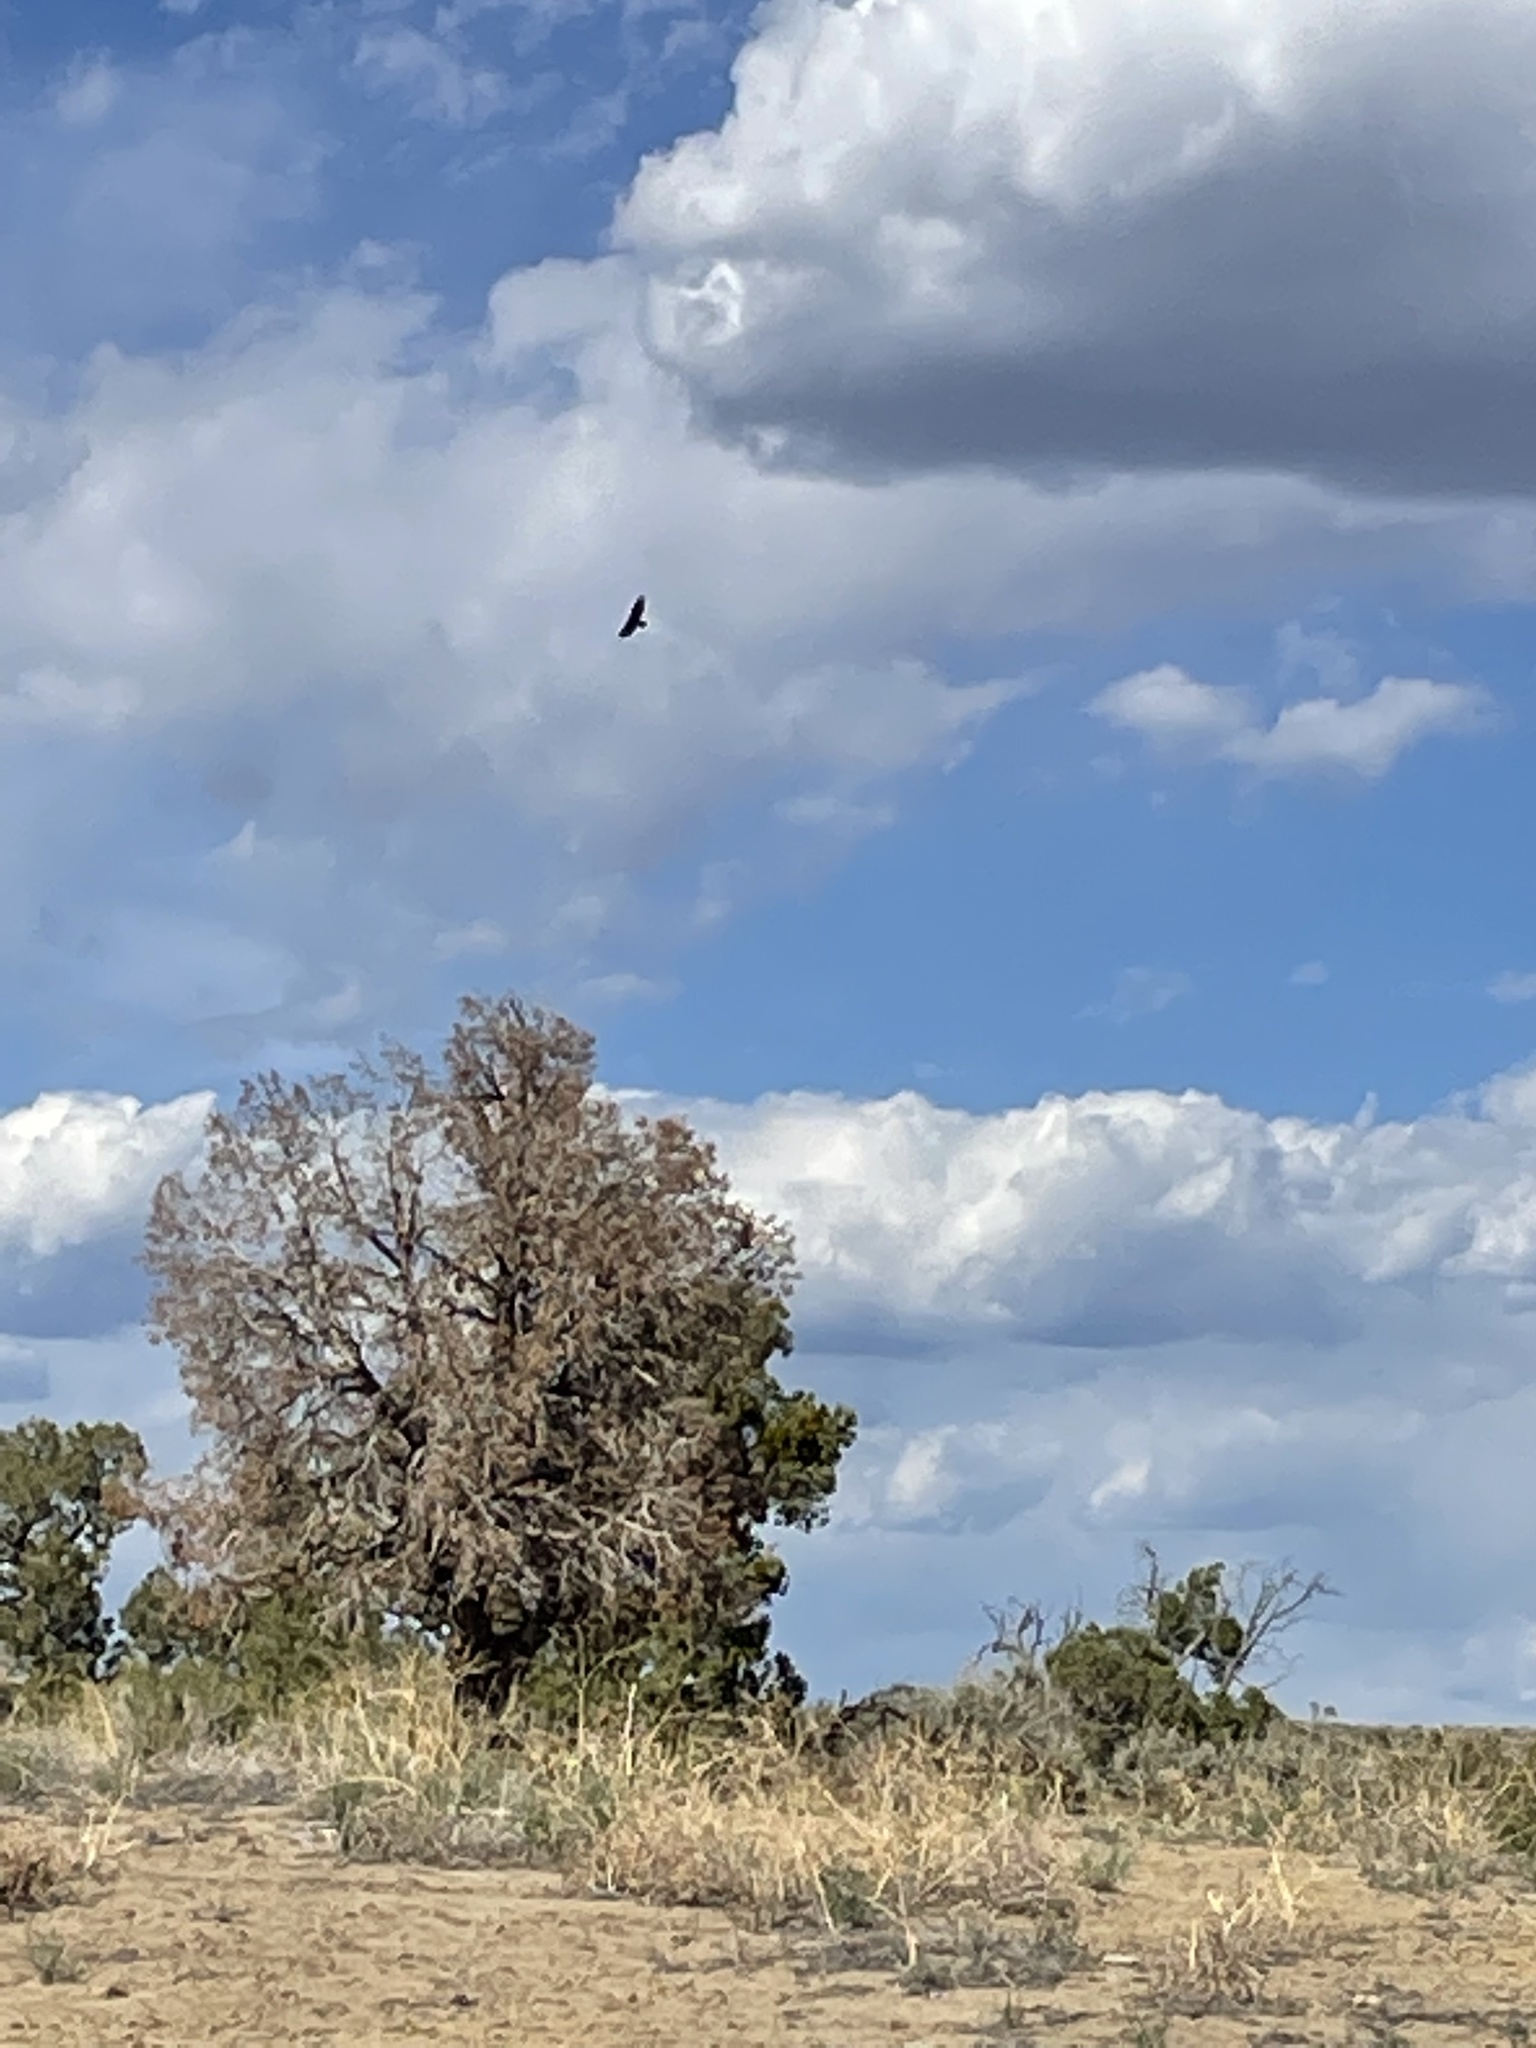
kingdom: Animalia
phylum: Chordata
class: Aves
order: Accipitriformes
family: Cathartidae
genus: Cathartes
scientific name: Cathartes aura
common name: Turkey vulture
